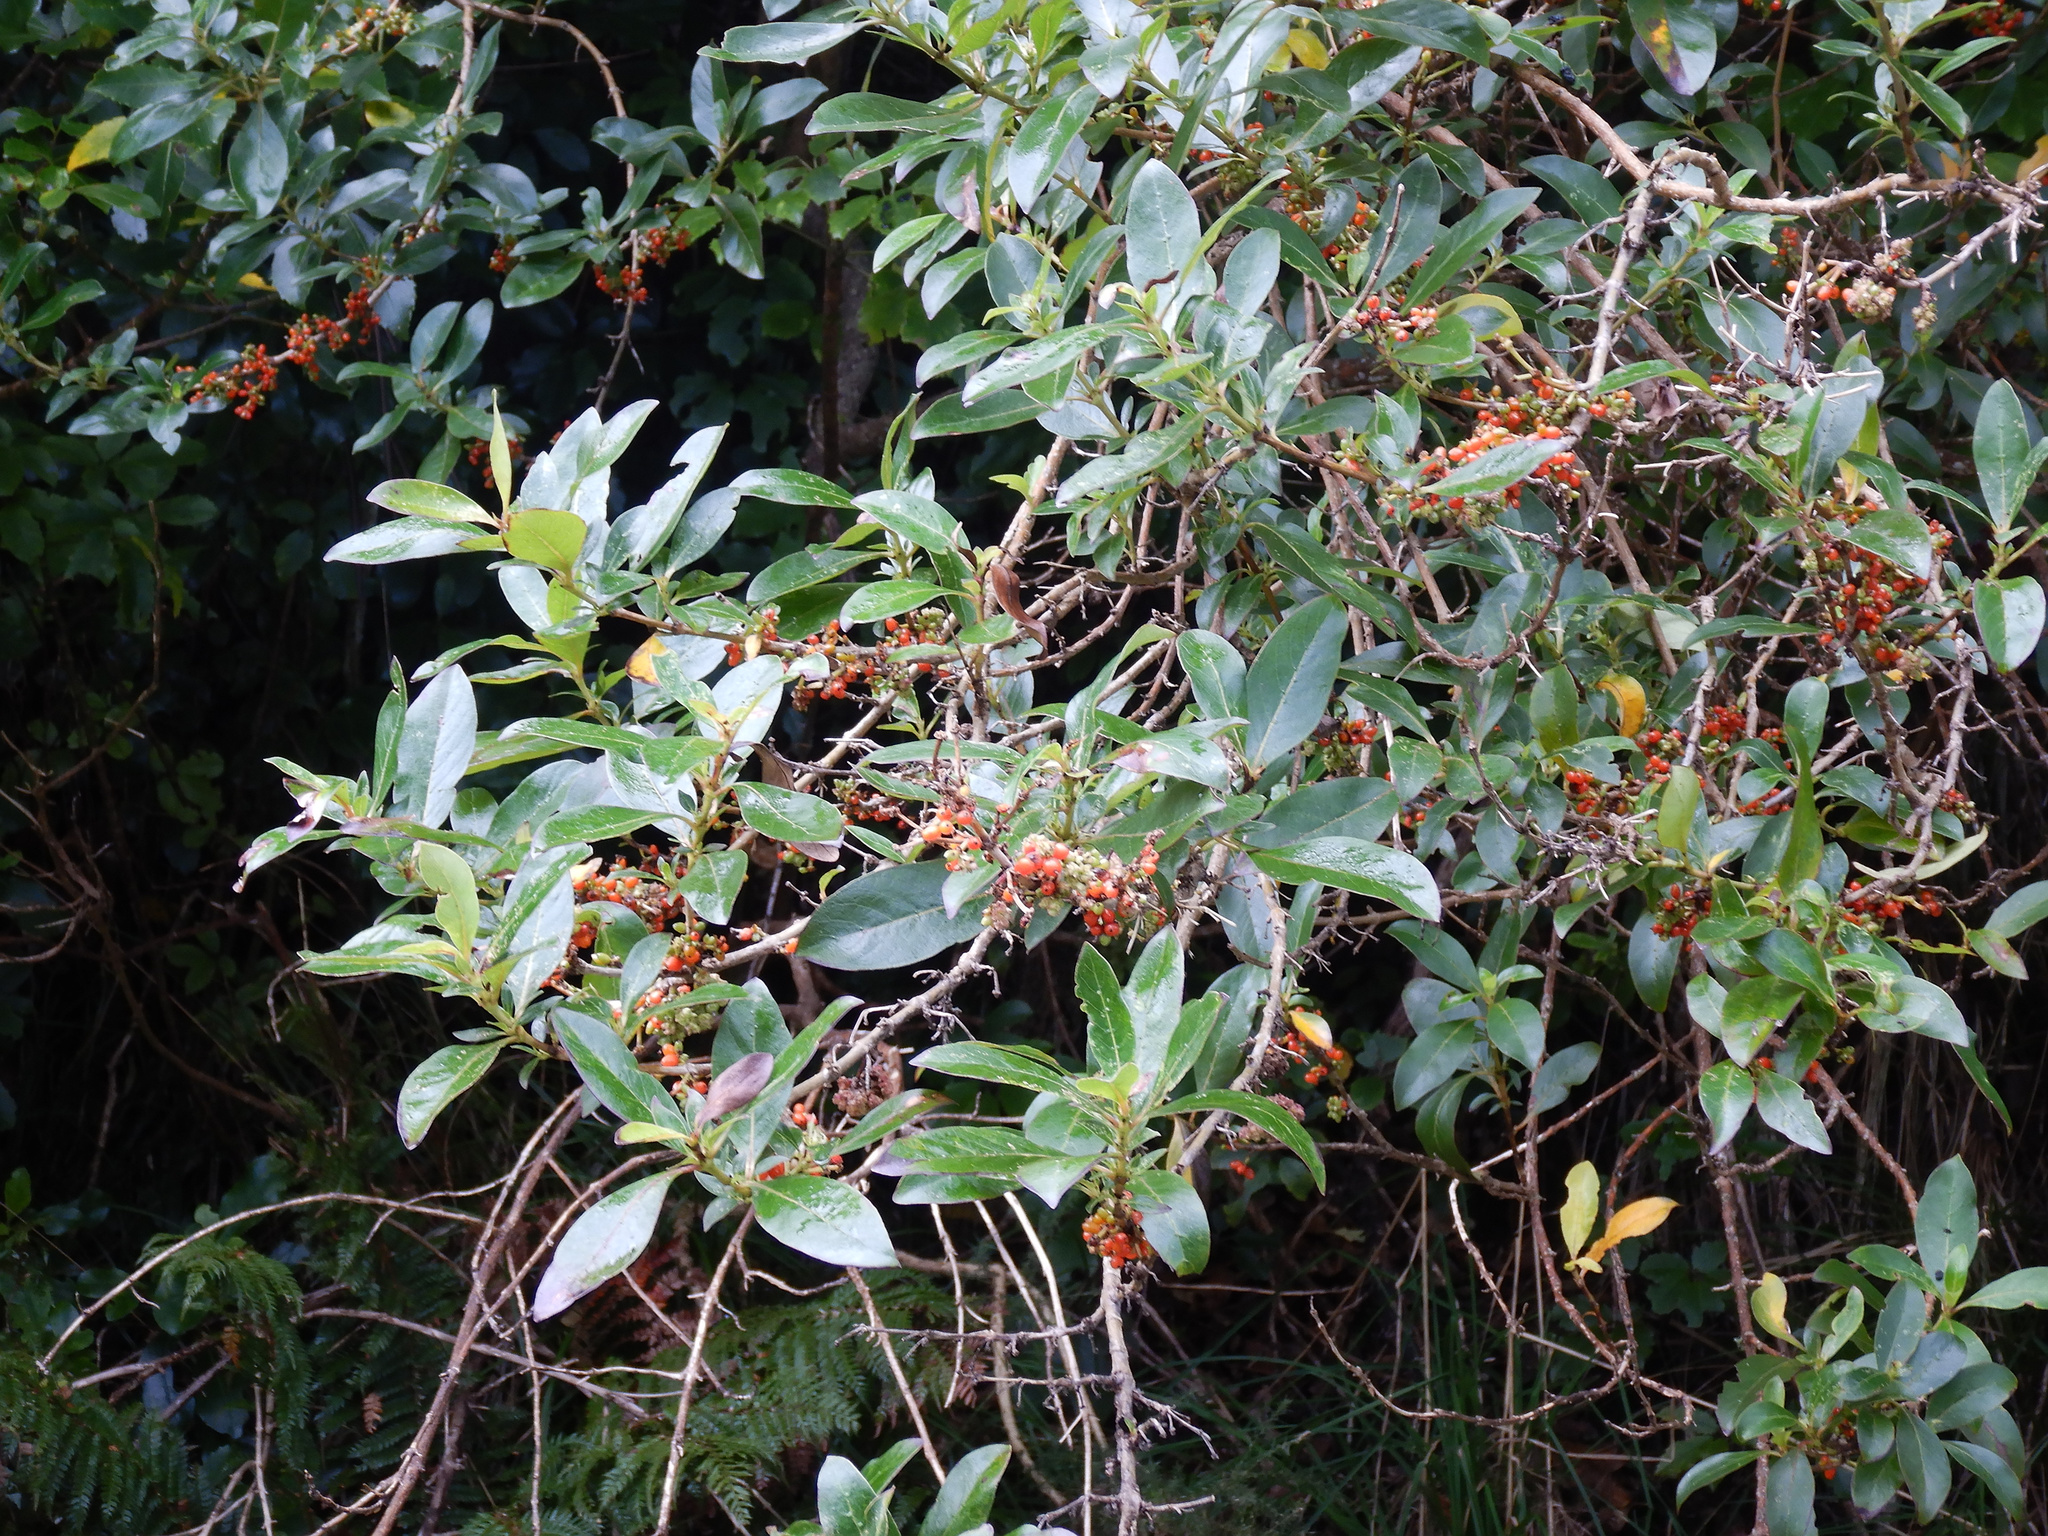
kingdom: Plantae
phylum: Tracheophyta
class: Magnoliopsida
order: Gentianales
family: Rubiaceae
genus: Coprosma
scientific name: Coprosma robusta
